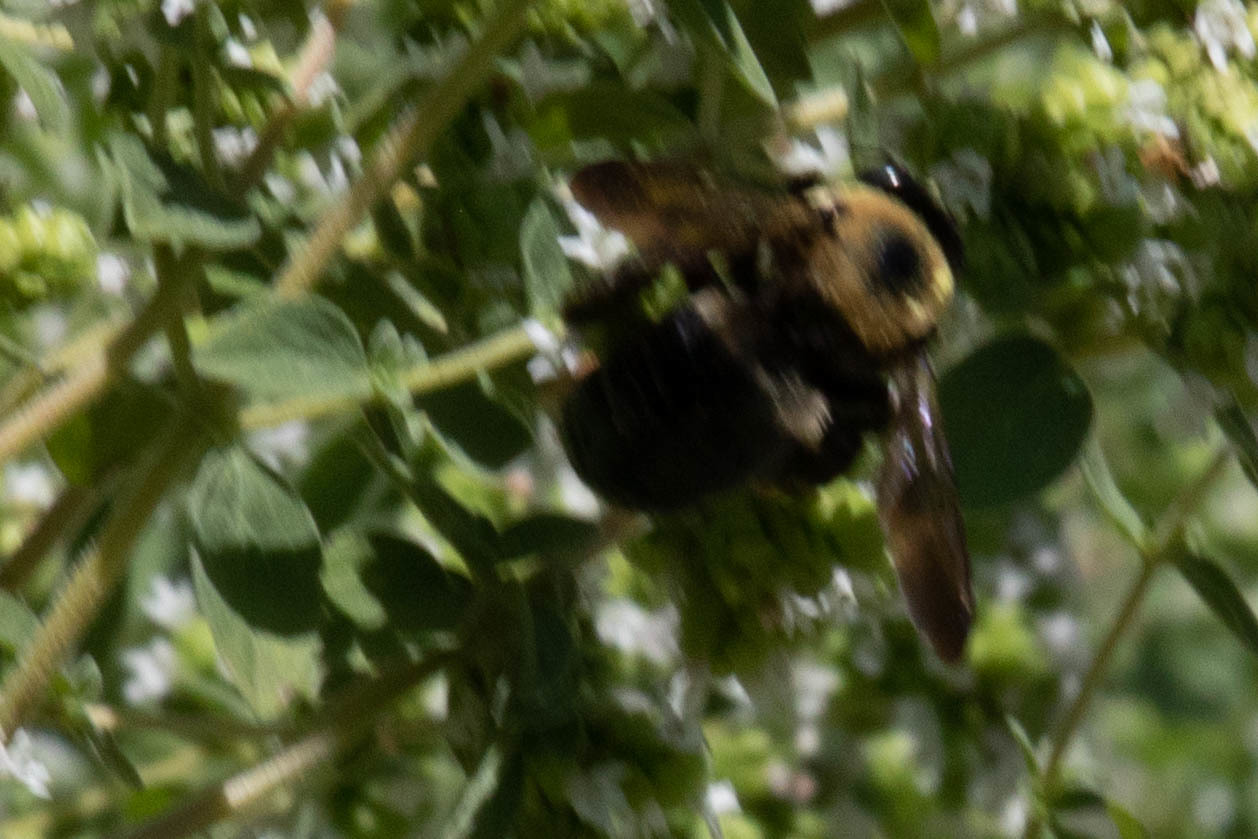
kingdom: Animalia
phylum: Arthropoda
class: Insecta
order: Hymenoptera
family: Apidae
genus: Xylocopa
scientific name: Xylocopa virginica
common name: Carpenter bee
